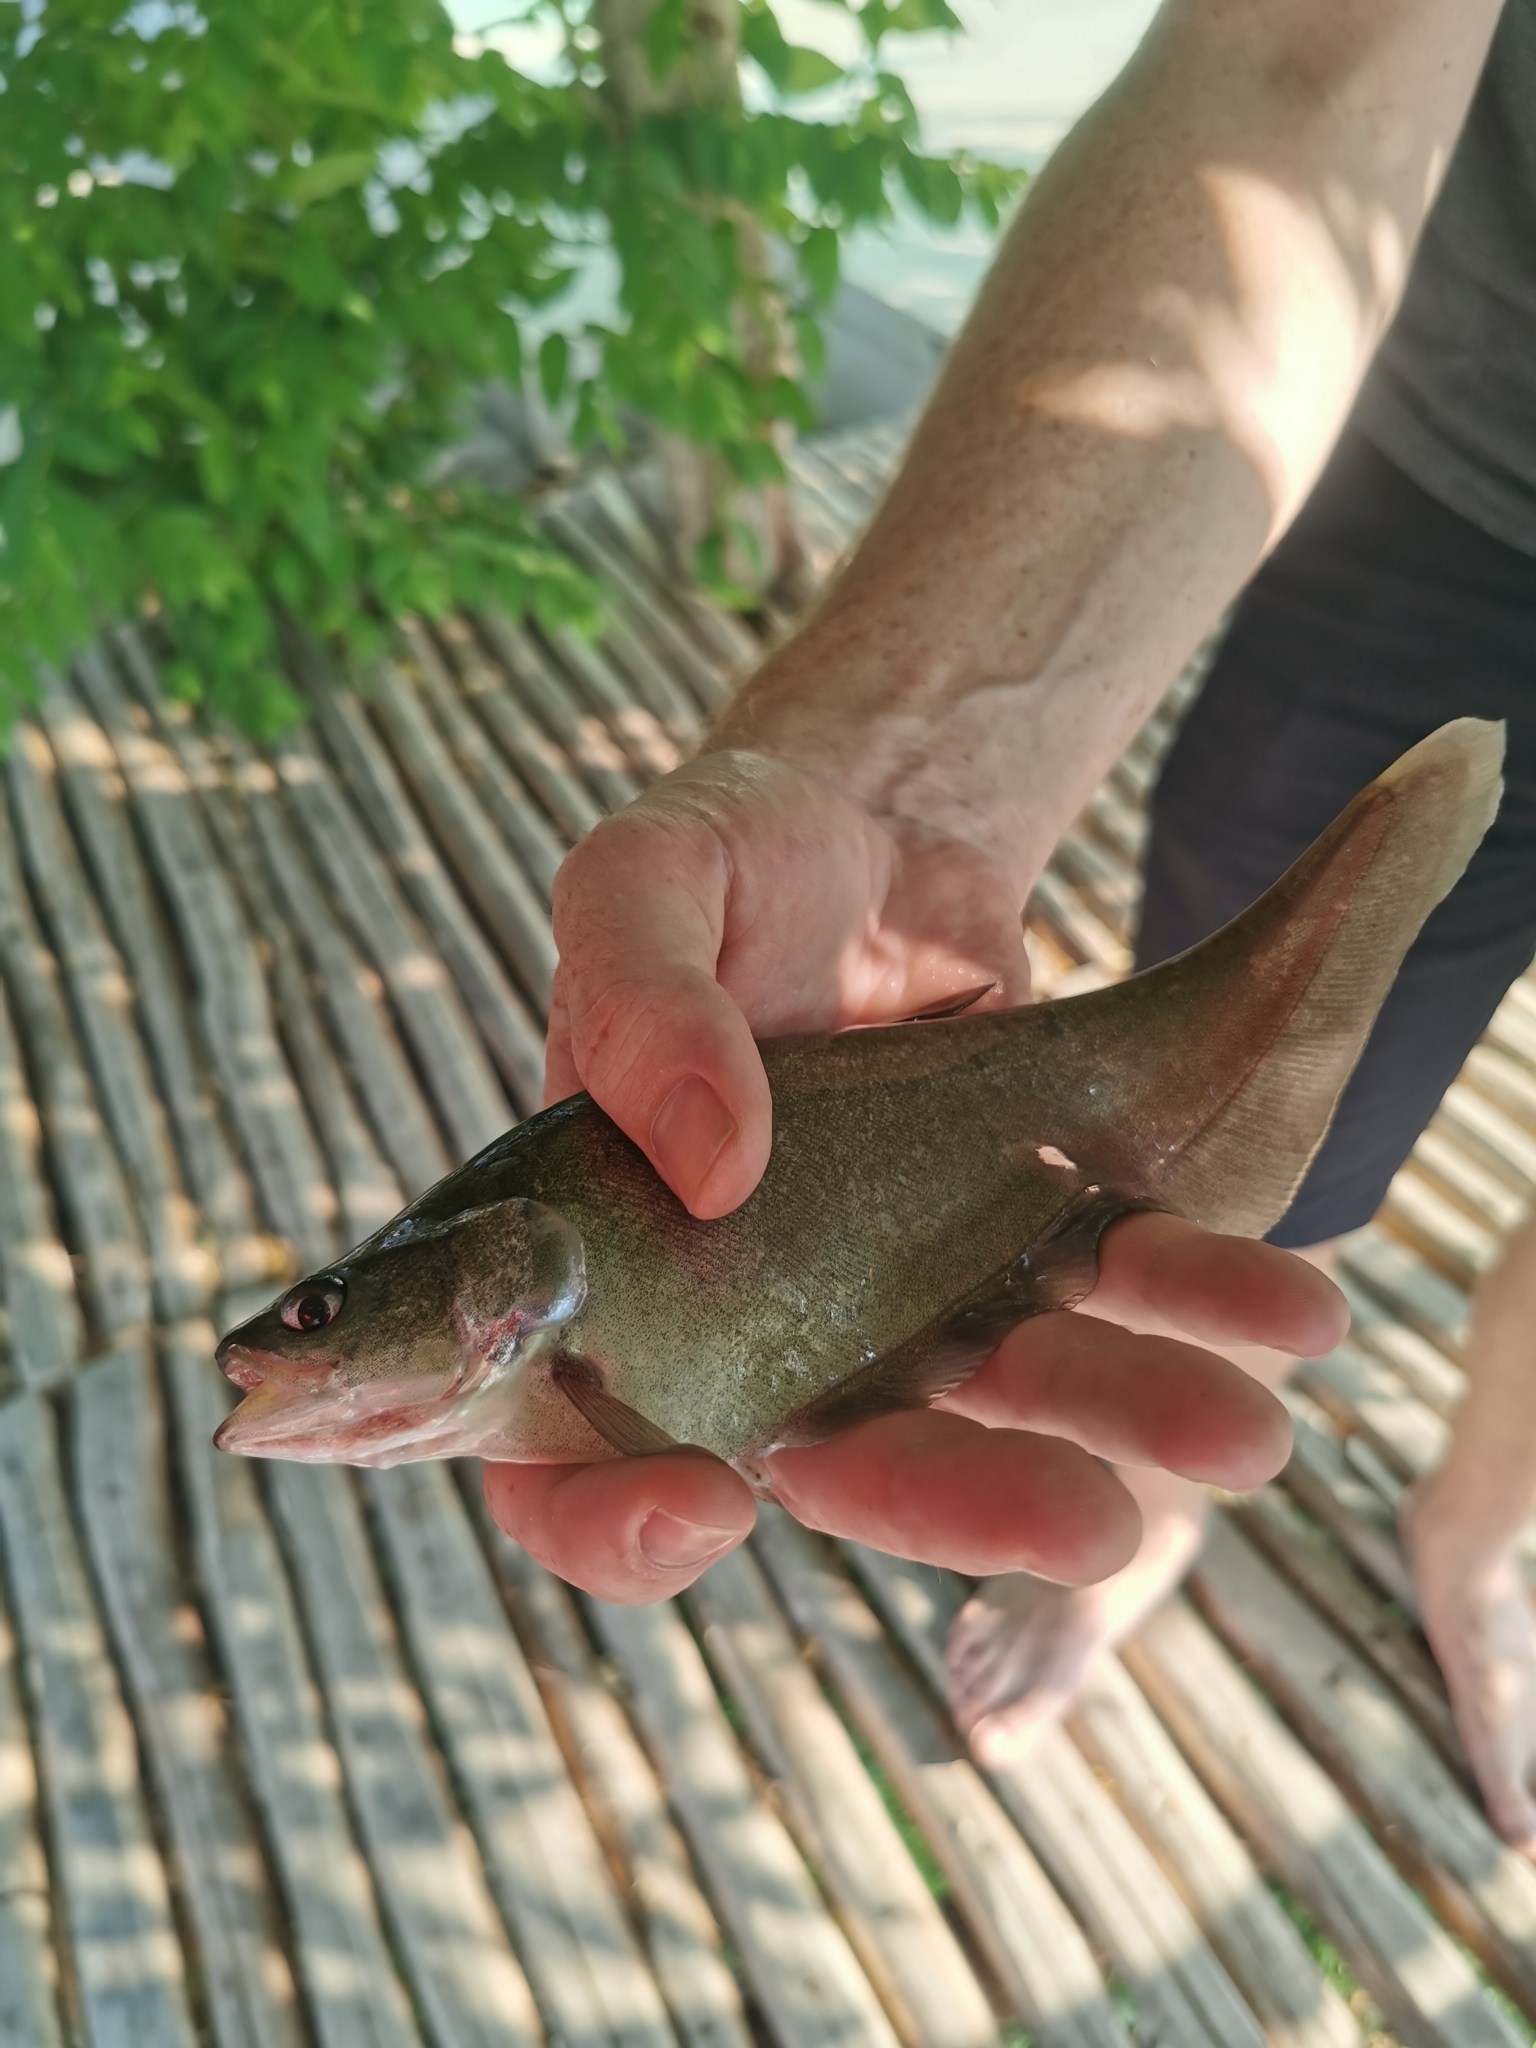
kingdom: Animalia
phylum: Chordata
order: Osteoglossiformes
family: Notopteridae
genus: Notopterus
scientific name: Notopterus notopterus
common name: Bronze featherback
